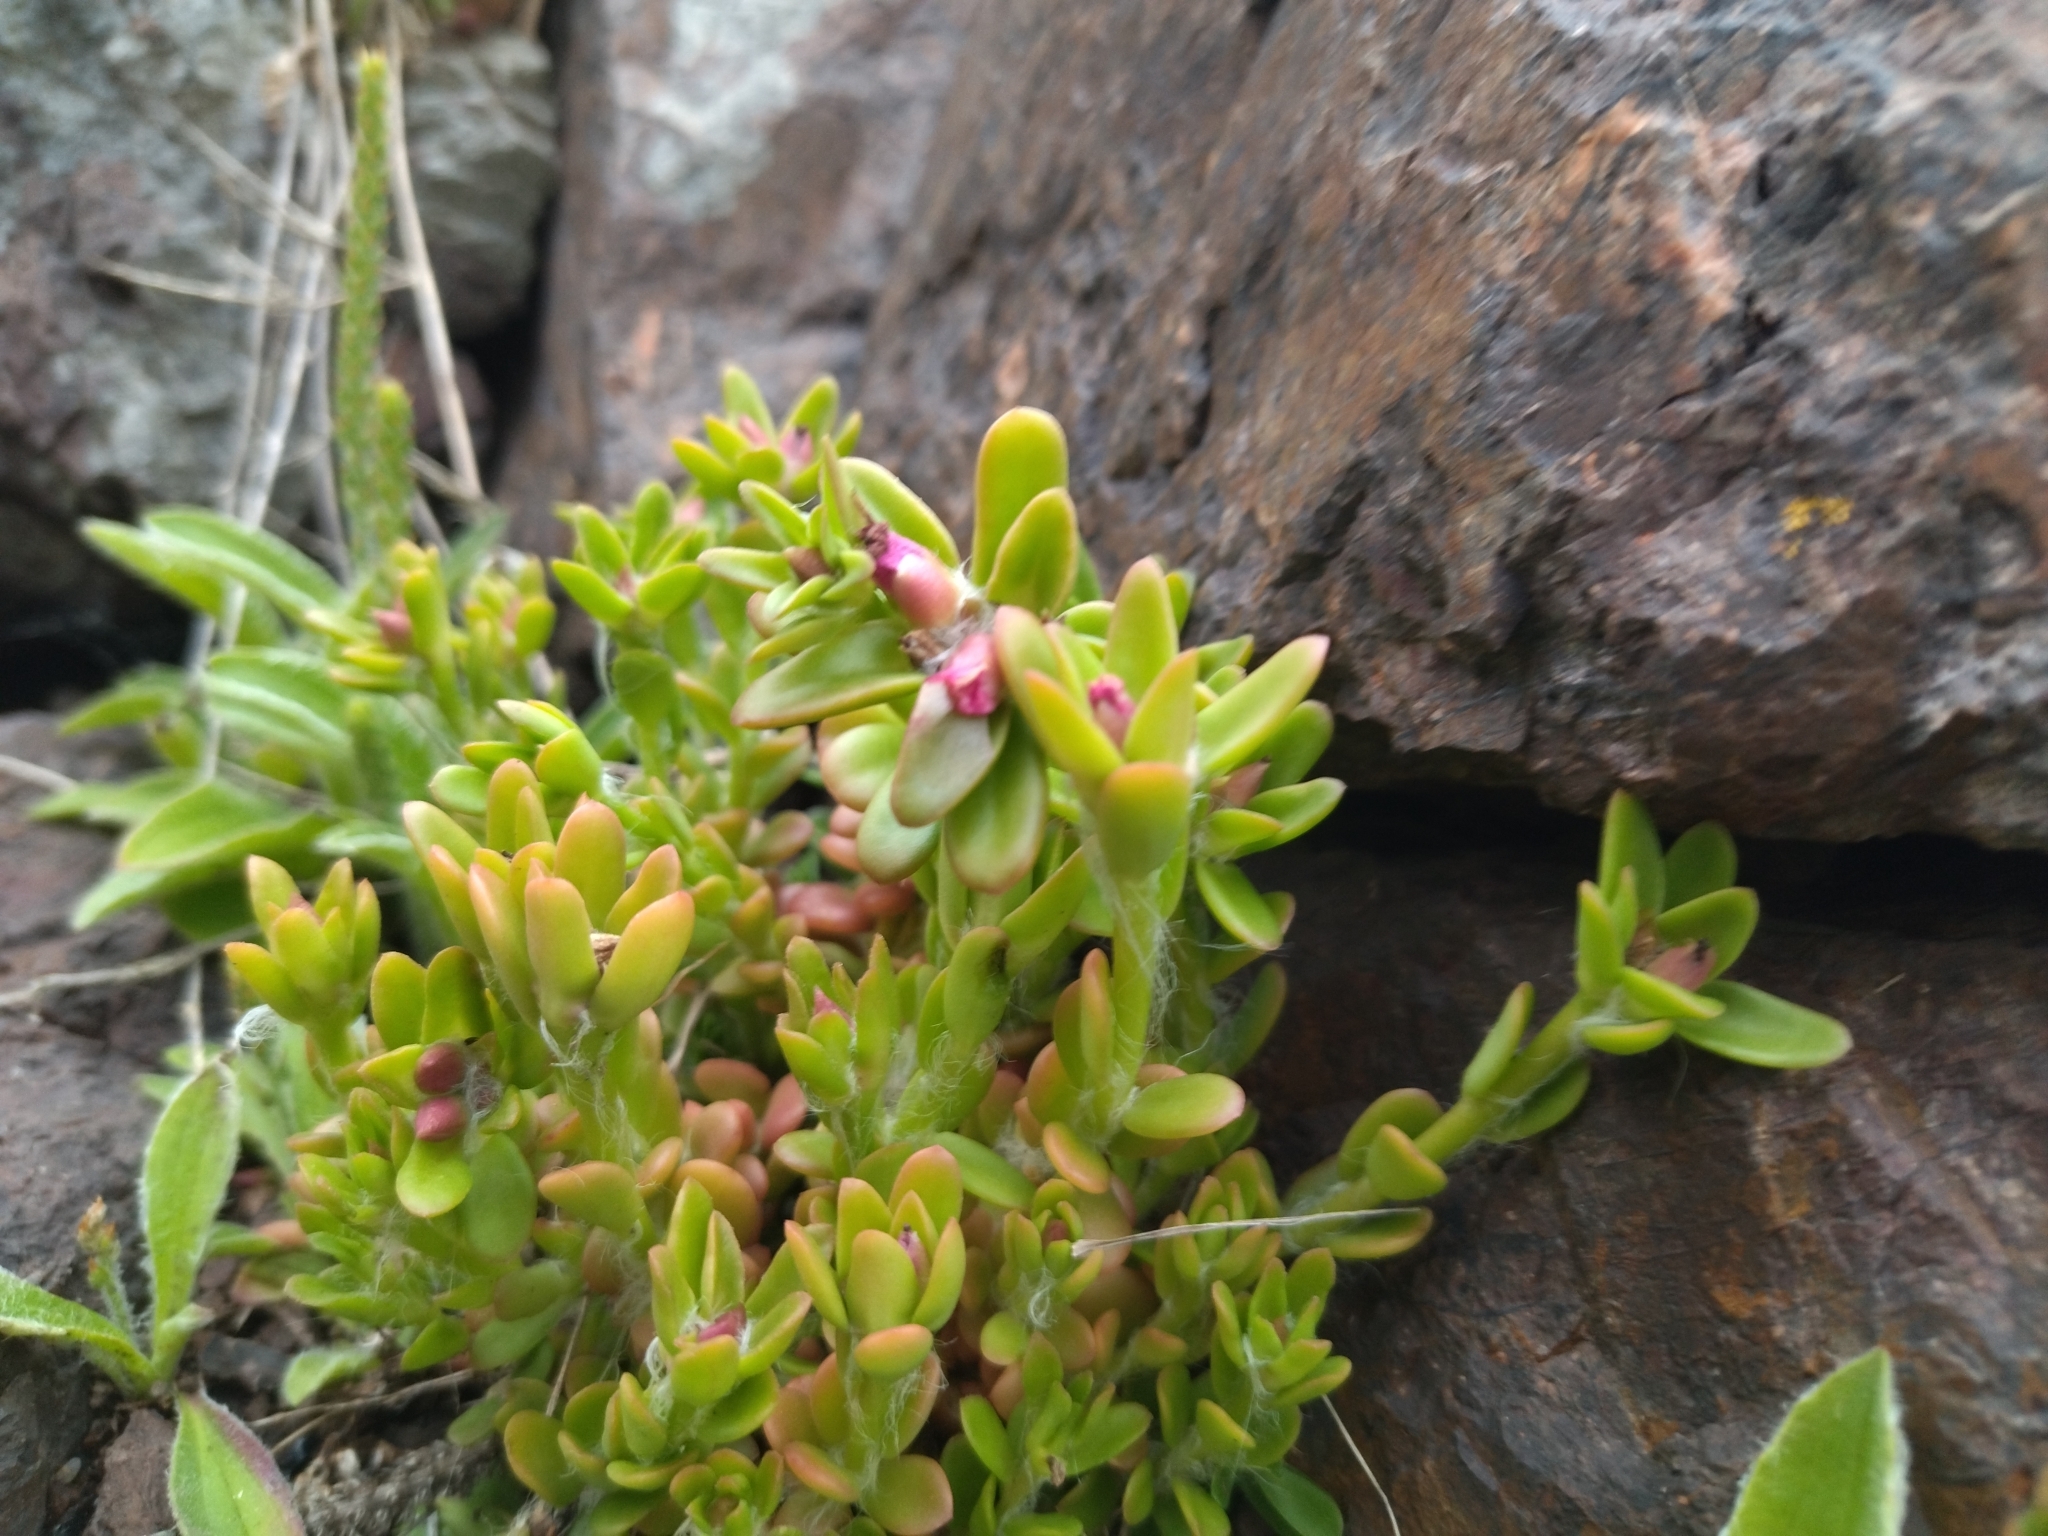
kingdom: Plantae
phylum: Tracheophyta
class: Magnoliopsida
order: Caryophyllales
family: Portulacaceae
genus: Portulaca
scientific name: Portulaca cryptopetala
